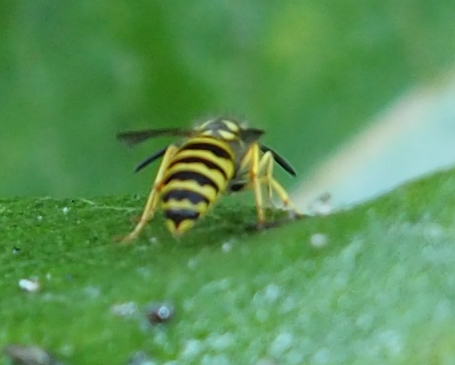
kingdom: Animalia
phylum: Arthropoda
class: Insecta
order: Hymenoptera
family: Vespidae
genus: Vespula
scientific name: Vespula maculifrons
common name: Eastern yellowjacket
